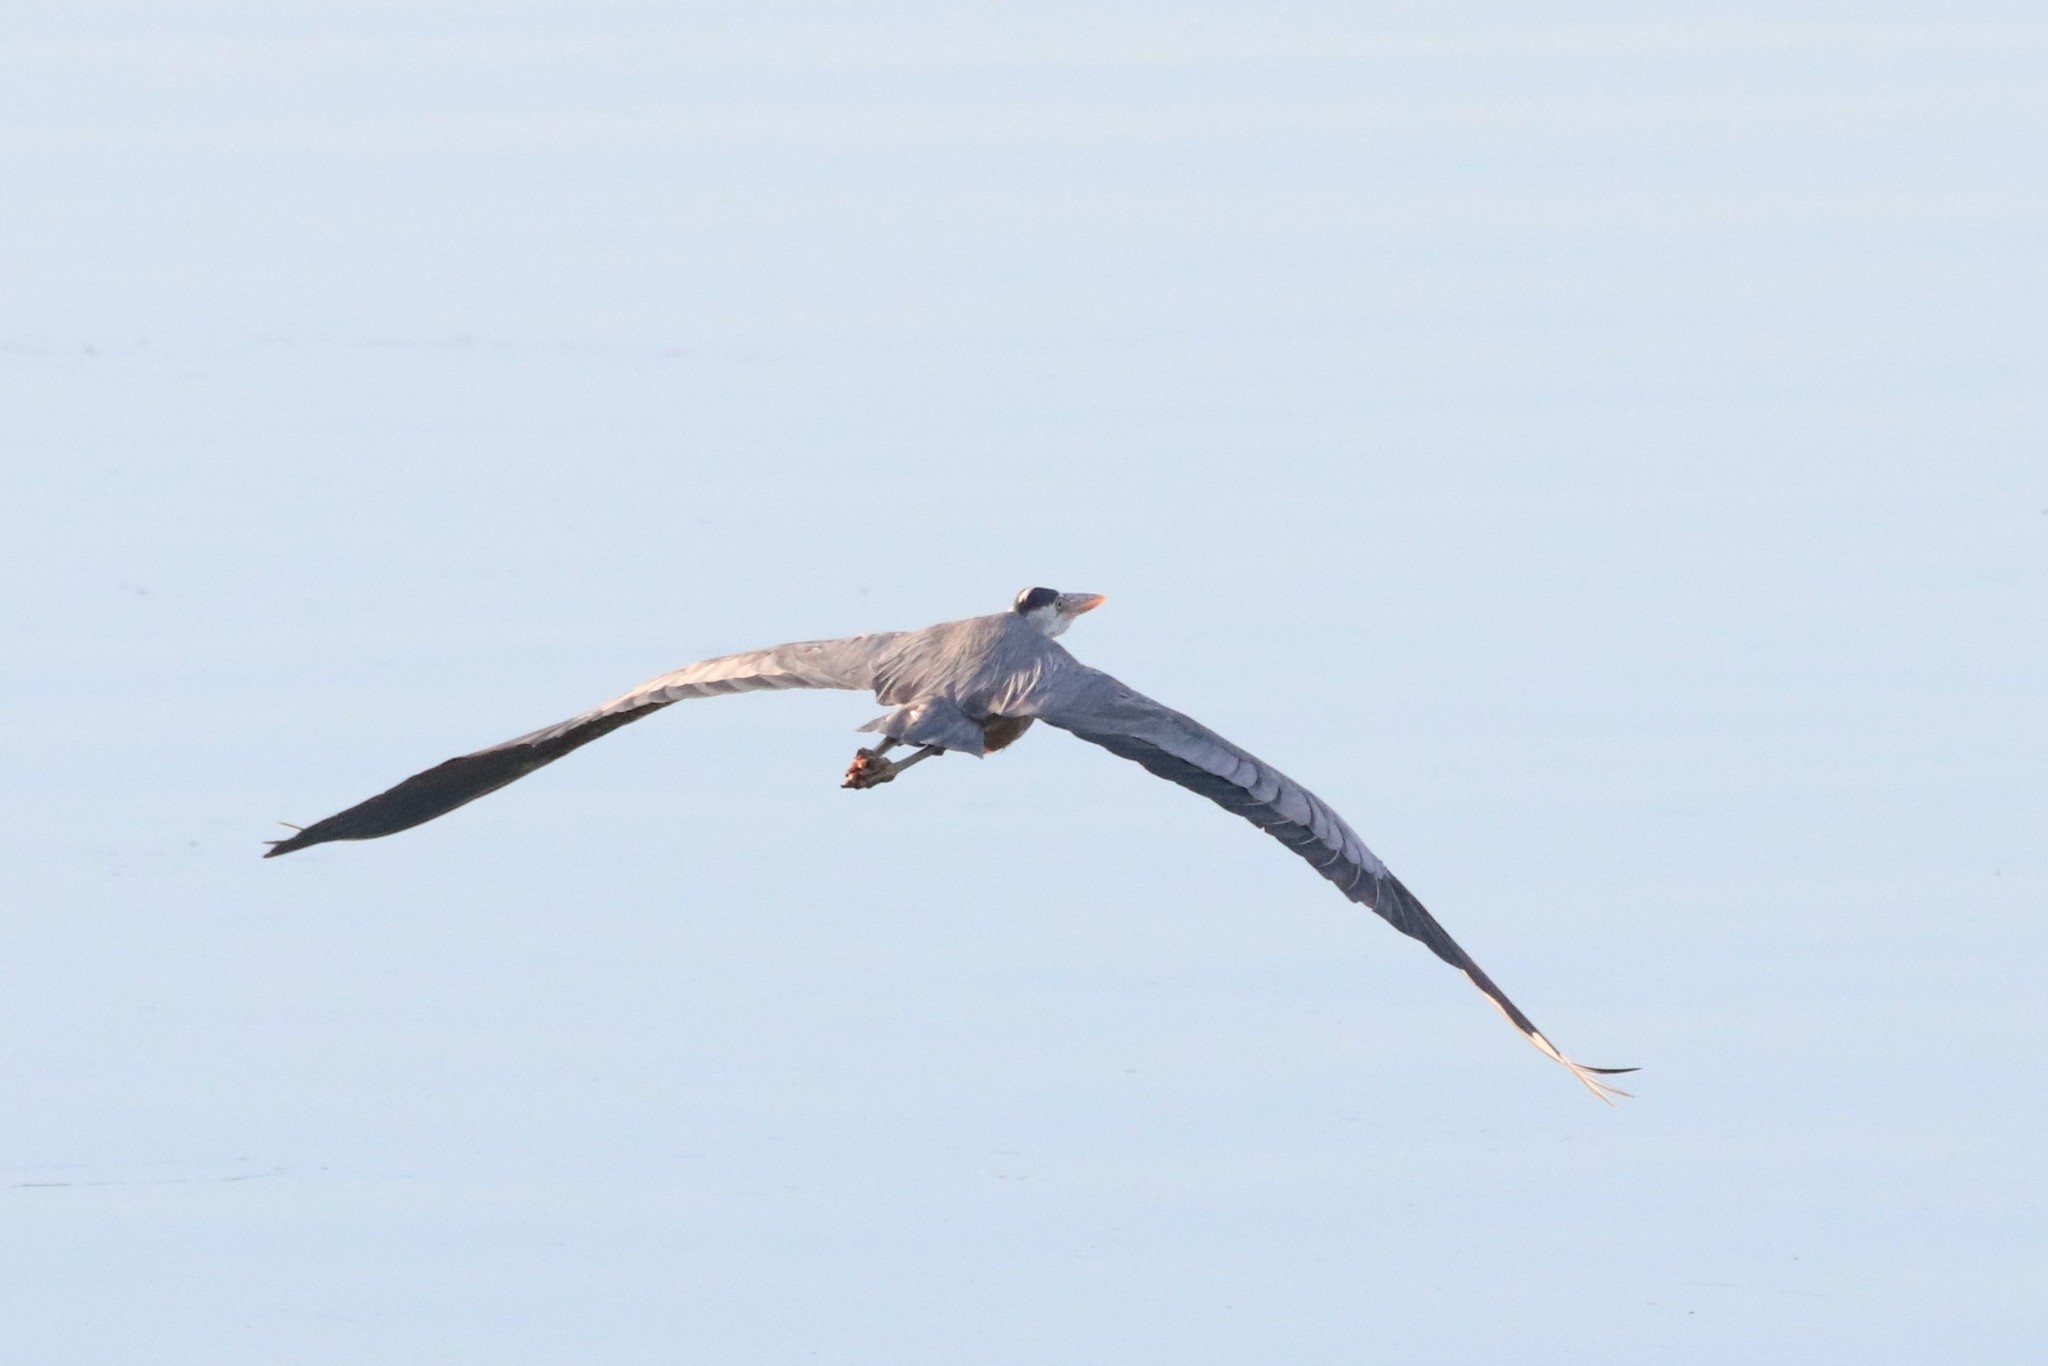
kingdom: Animalia
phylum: Chordata
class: Aves
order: Pelecaniformes
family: Ardeidae
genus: Ardea
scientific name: Ardea herodias
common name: Great blue heron
